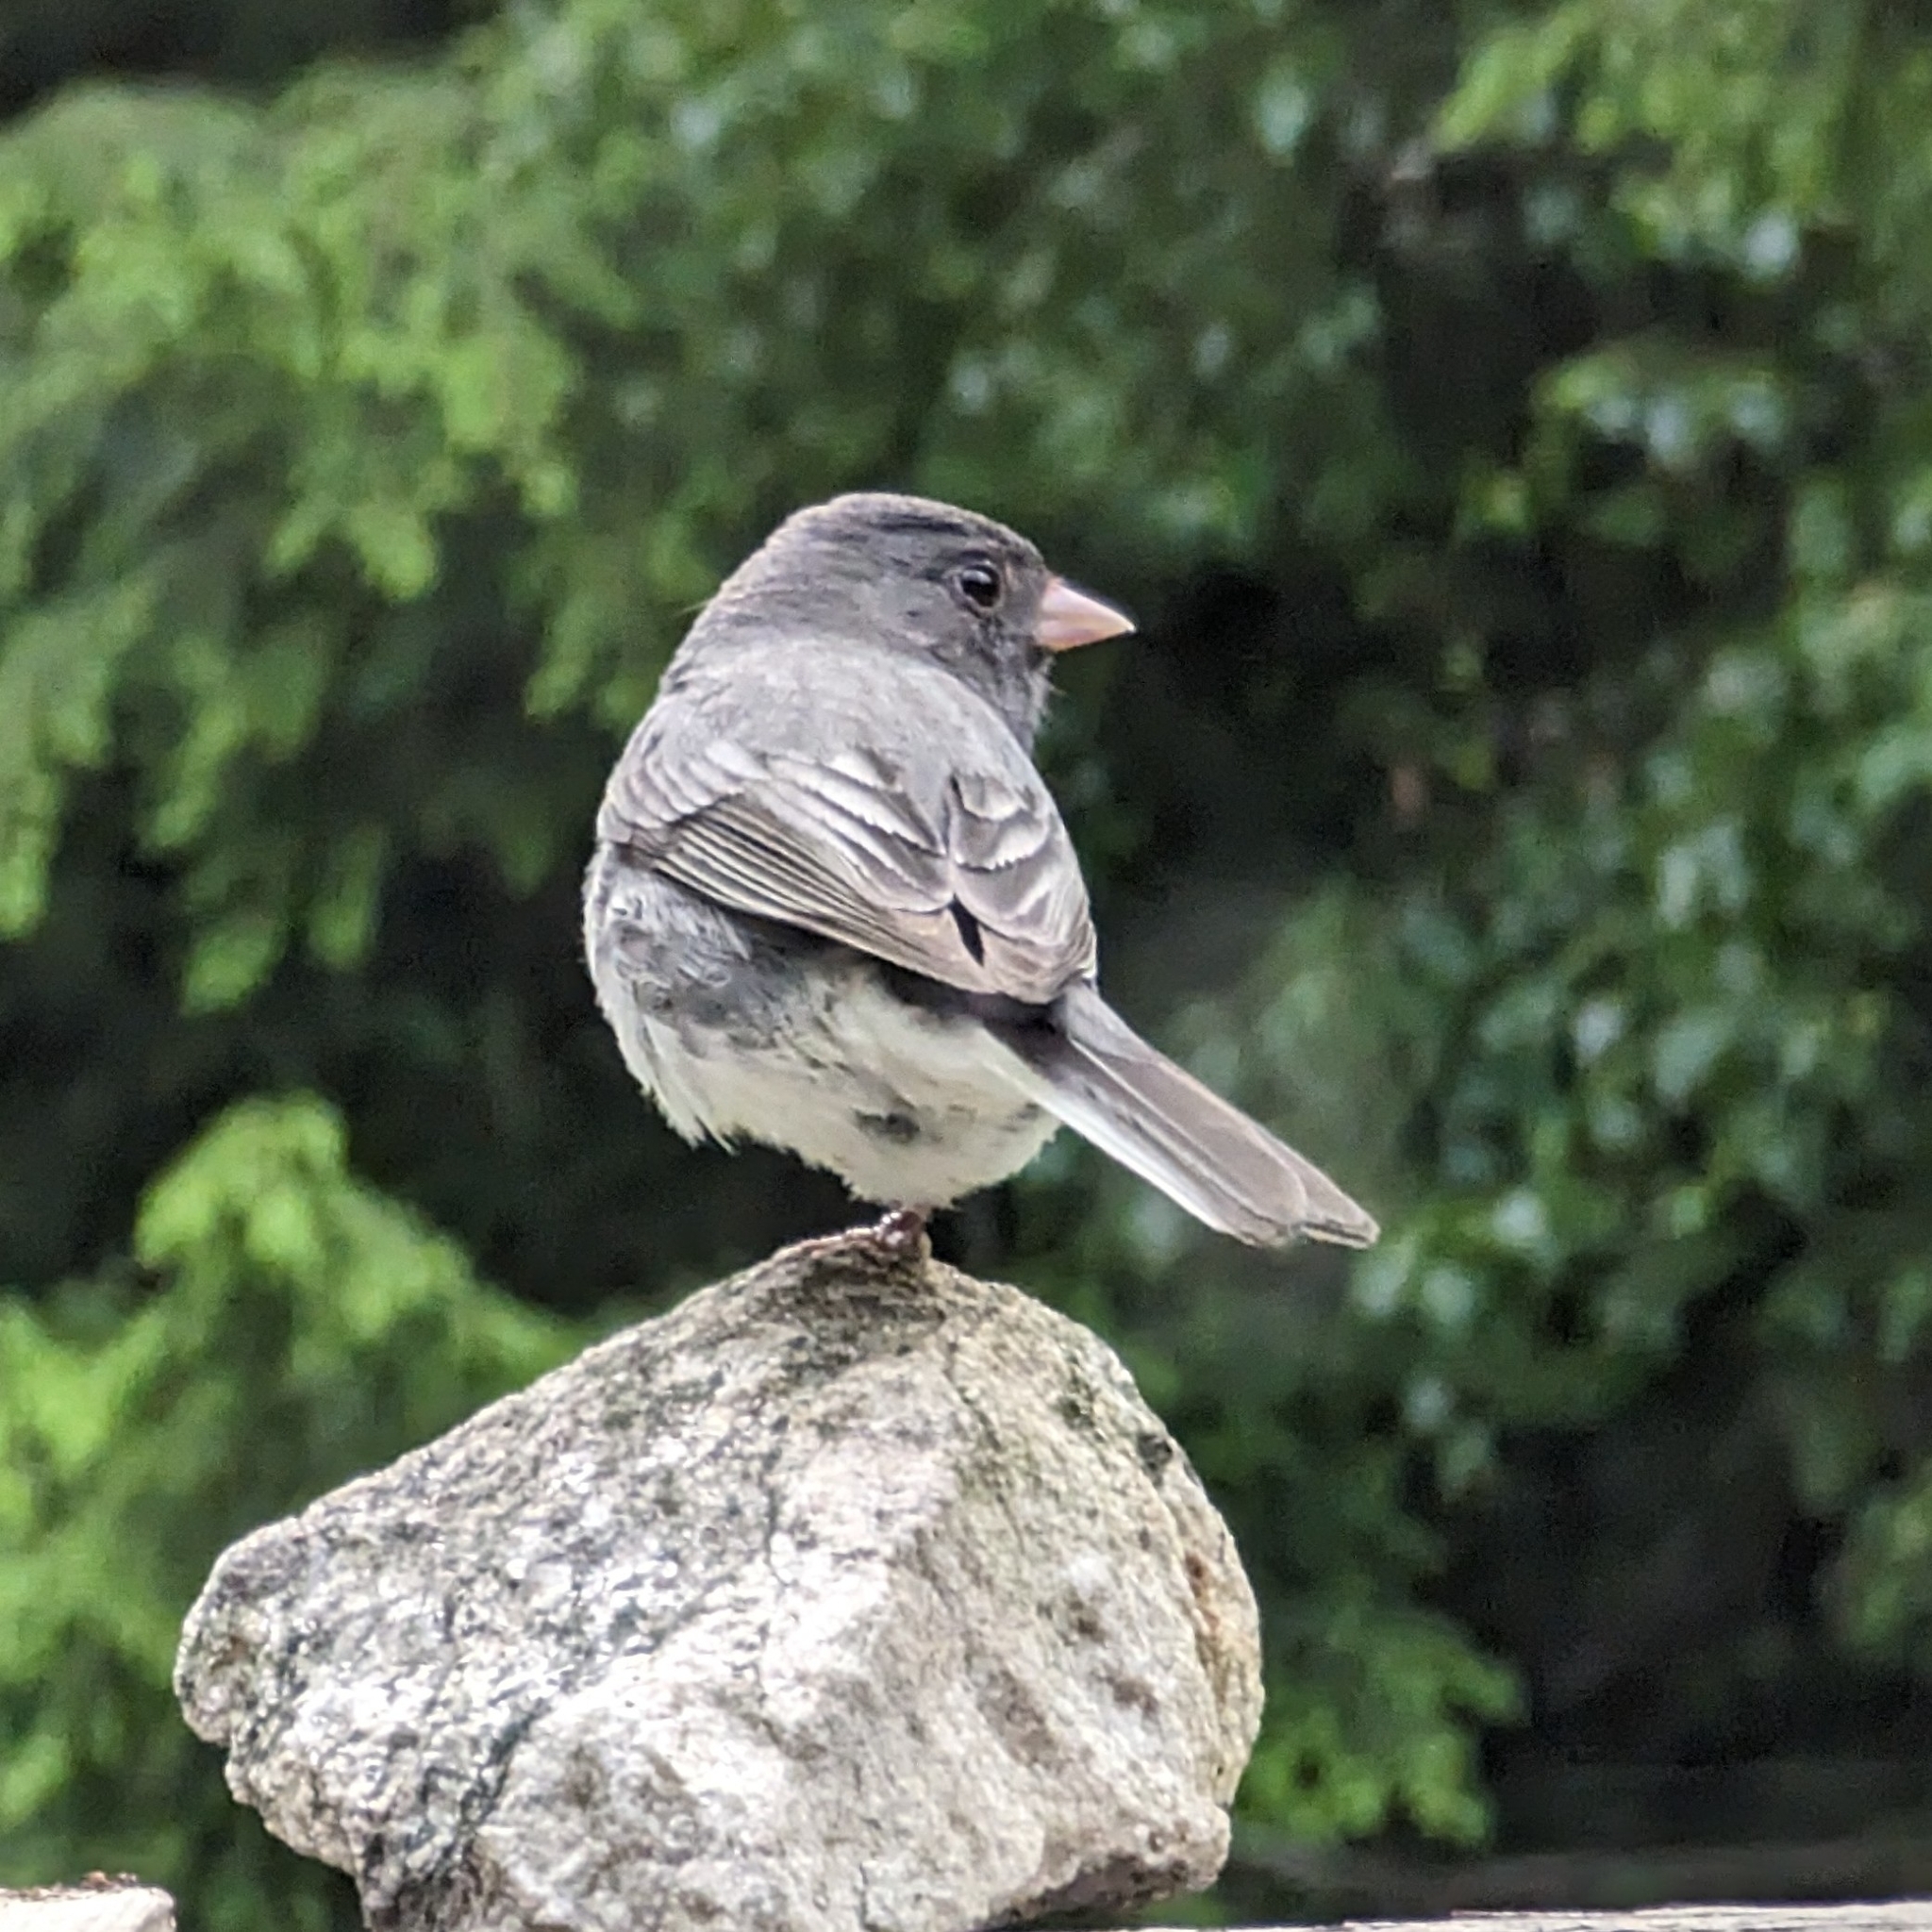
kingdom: Animalia
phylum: Chordata
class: Aves
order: Passeriformes
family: Passerellidae
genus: Junco
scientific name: Junco hyemalis
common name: Dark-eyed junco
